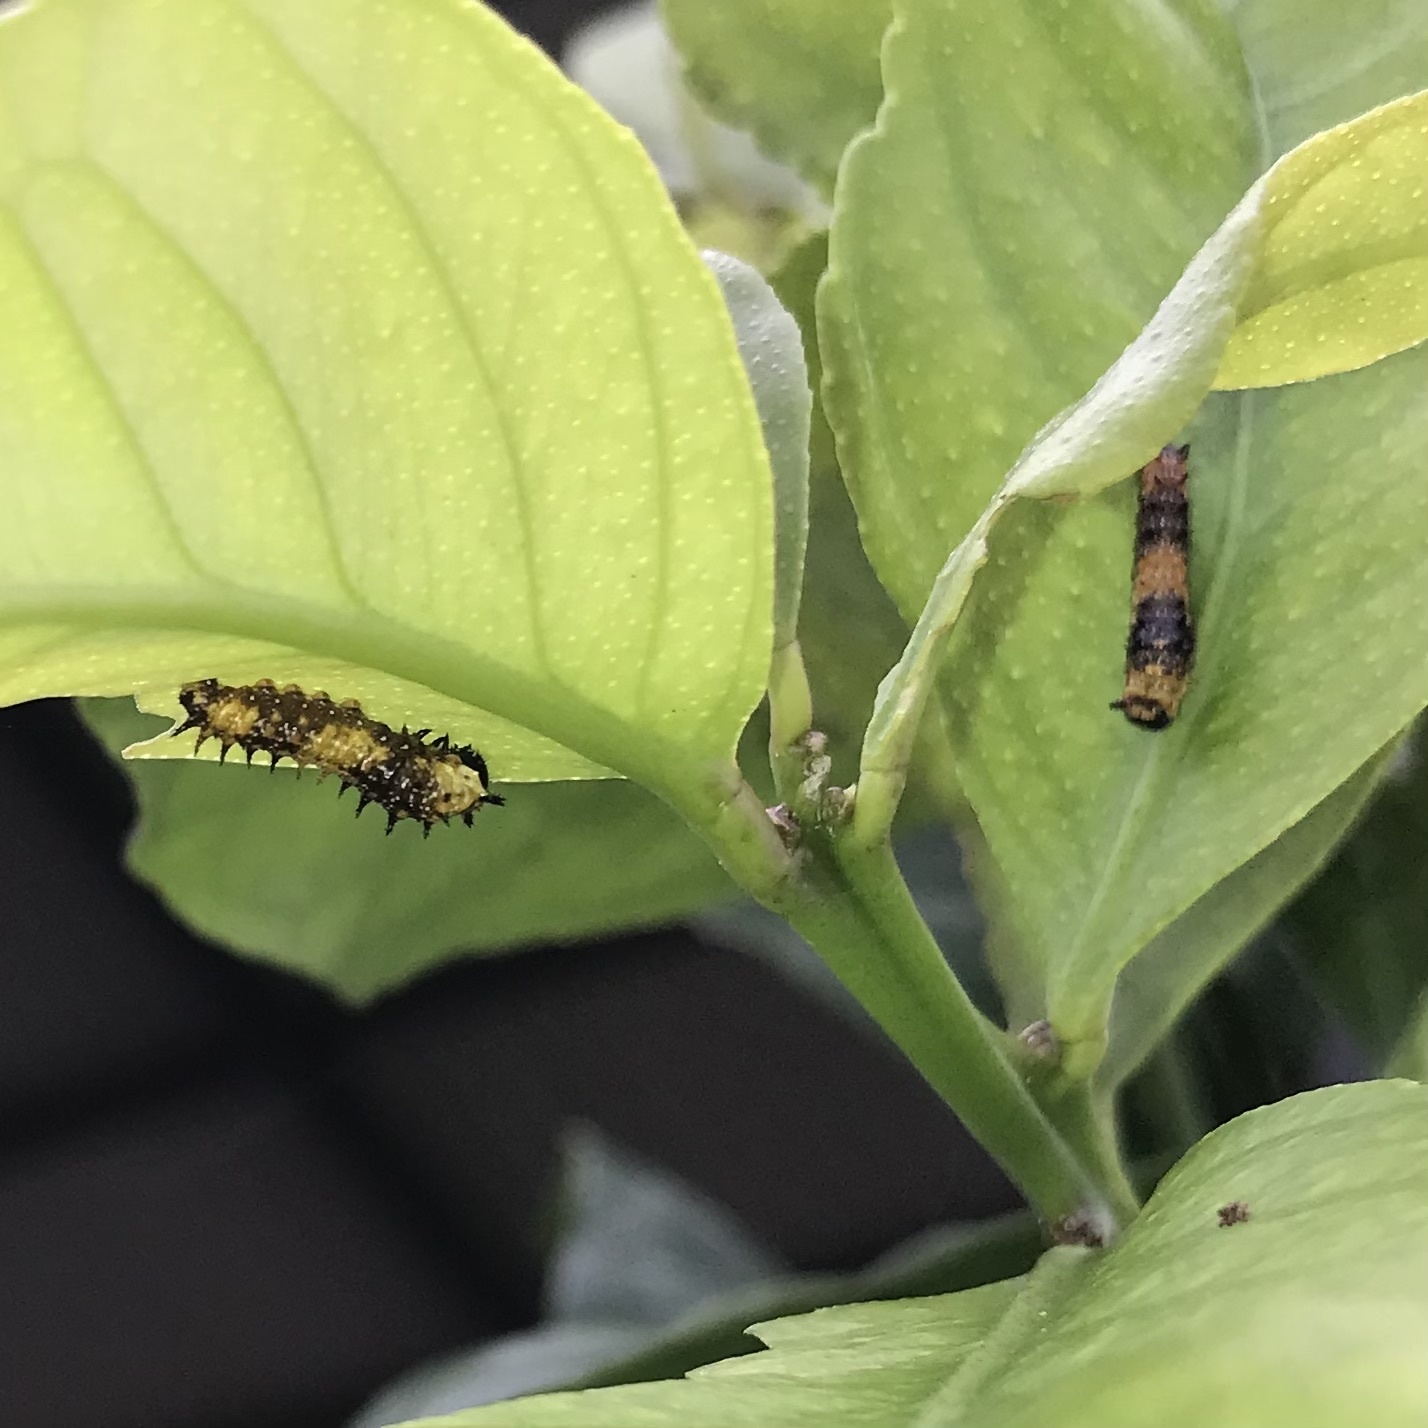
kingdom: Animalia
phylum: Arthropoda
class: Insecta
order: Lepidoptera
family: Papilionidae
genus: Papilio
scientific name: Papilio anactus
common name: Dingy swallowtail
